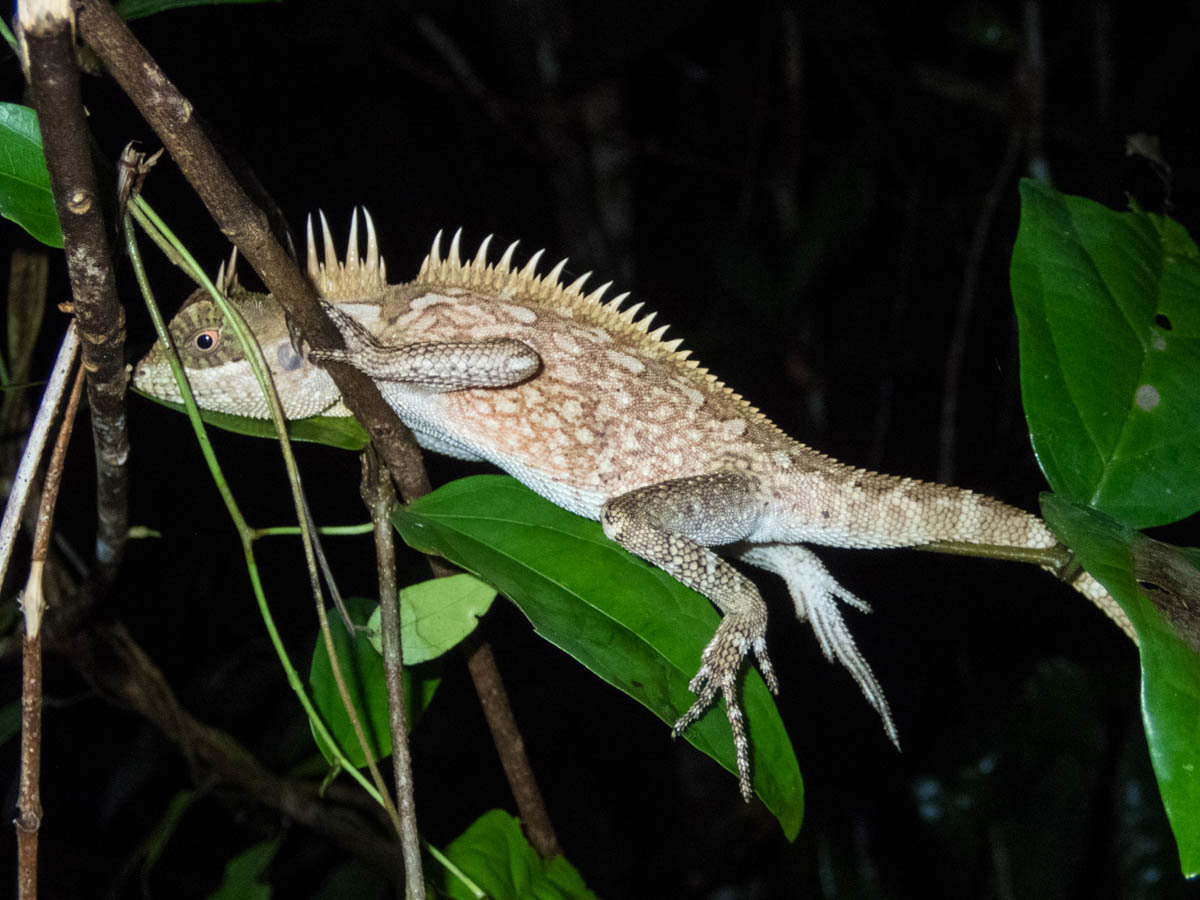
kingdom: Animalia
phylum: Chordata
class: Squamata
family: Agamidae
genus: Acanthosaura
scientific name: Acanthosaura cardamomensis
